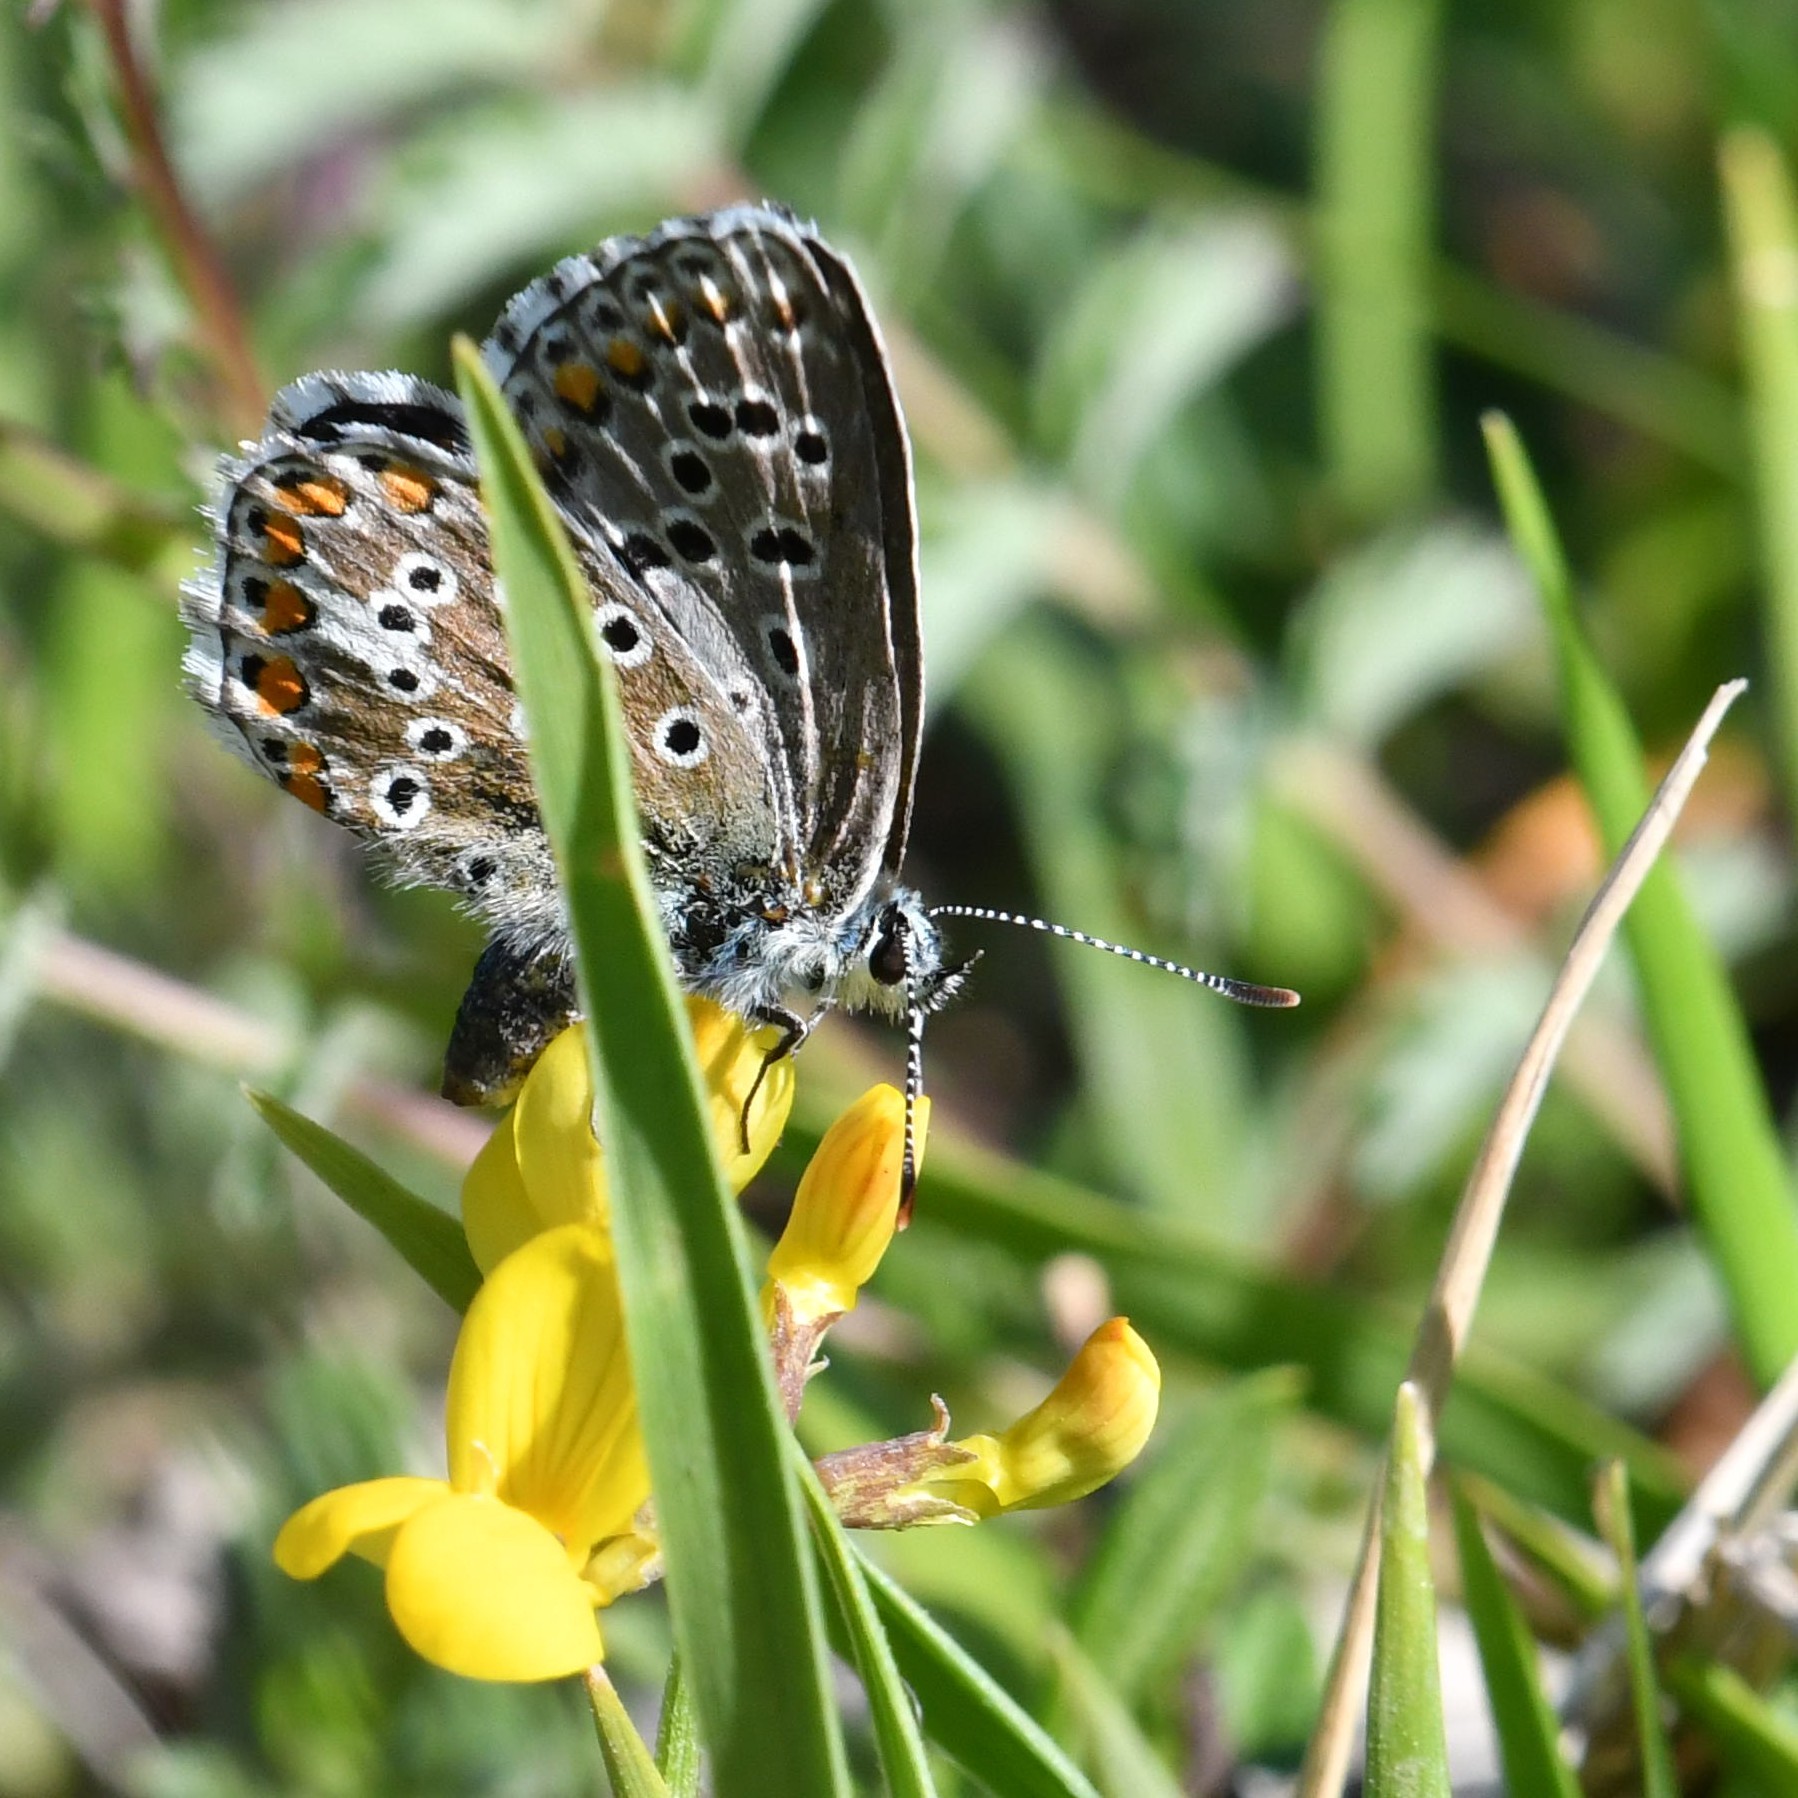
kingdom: Animalia
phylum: Arthropoda
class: Insecta
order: Lepidoptera
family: Lycaenidae
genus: Lysandra
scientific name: Lysandra bellargus
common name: Adonis blue
